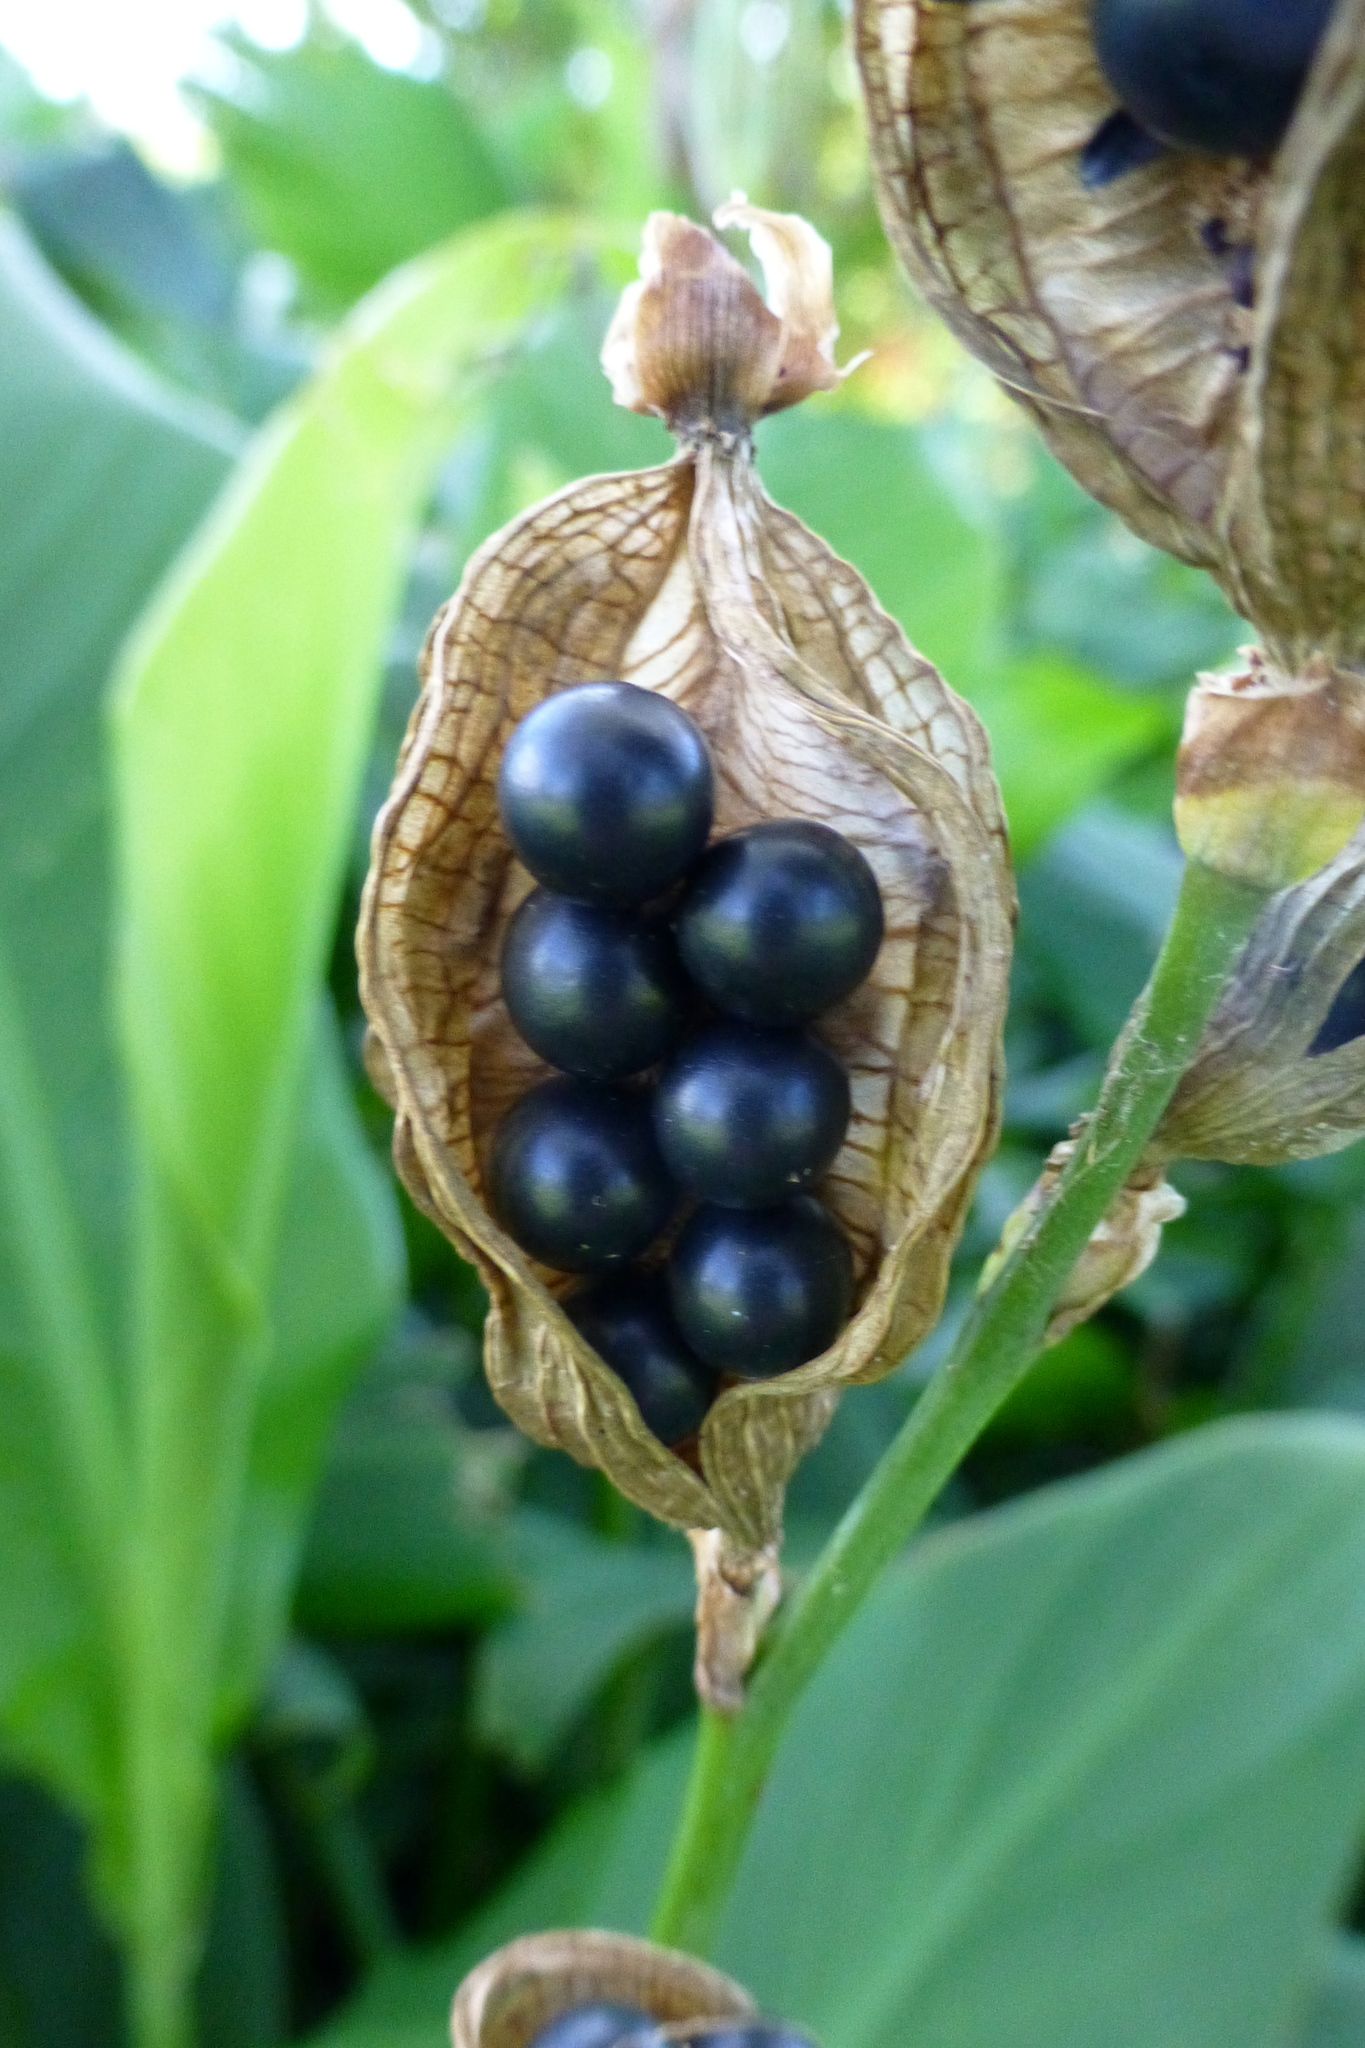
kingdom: Plantae
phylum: Tracheophyta
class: Liliopsida
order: Zingiberales
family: Cannaceae
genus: Canna
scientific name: Canna indica
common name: Indian shot
